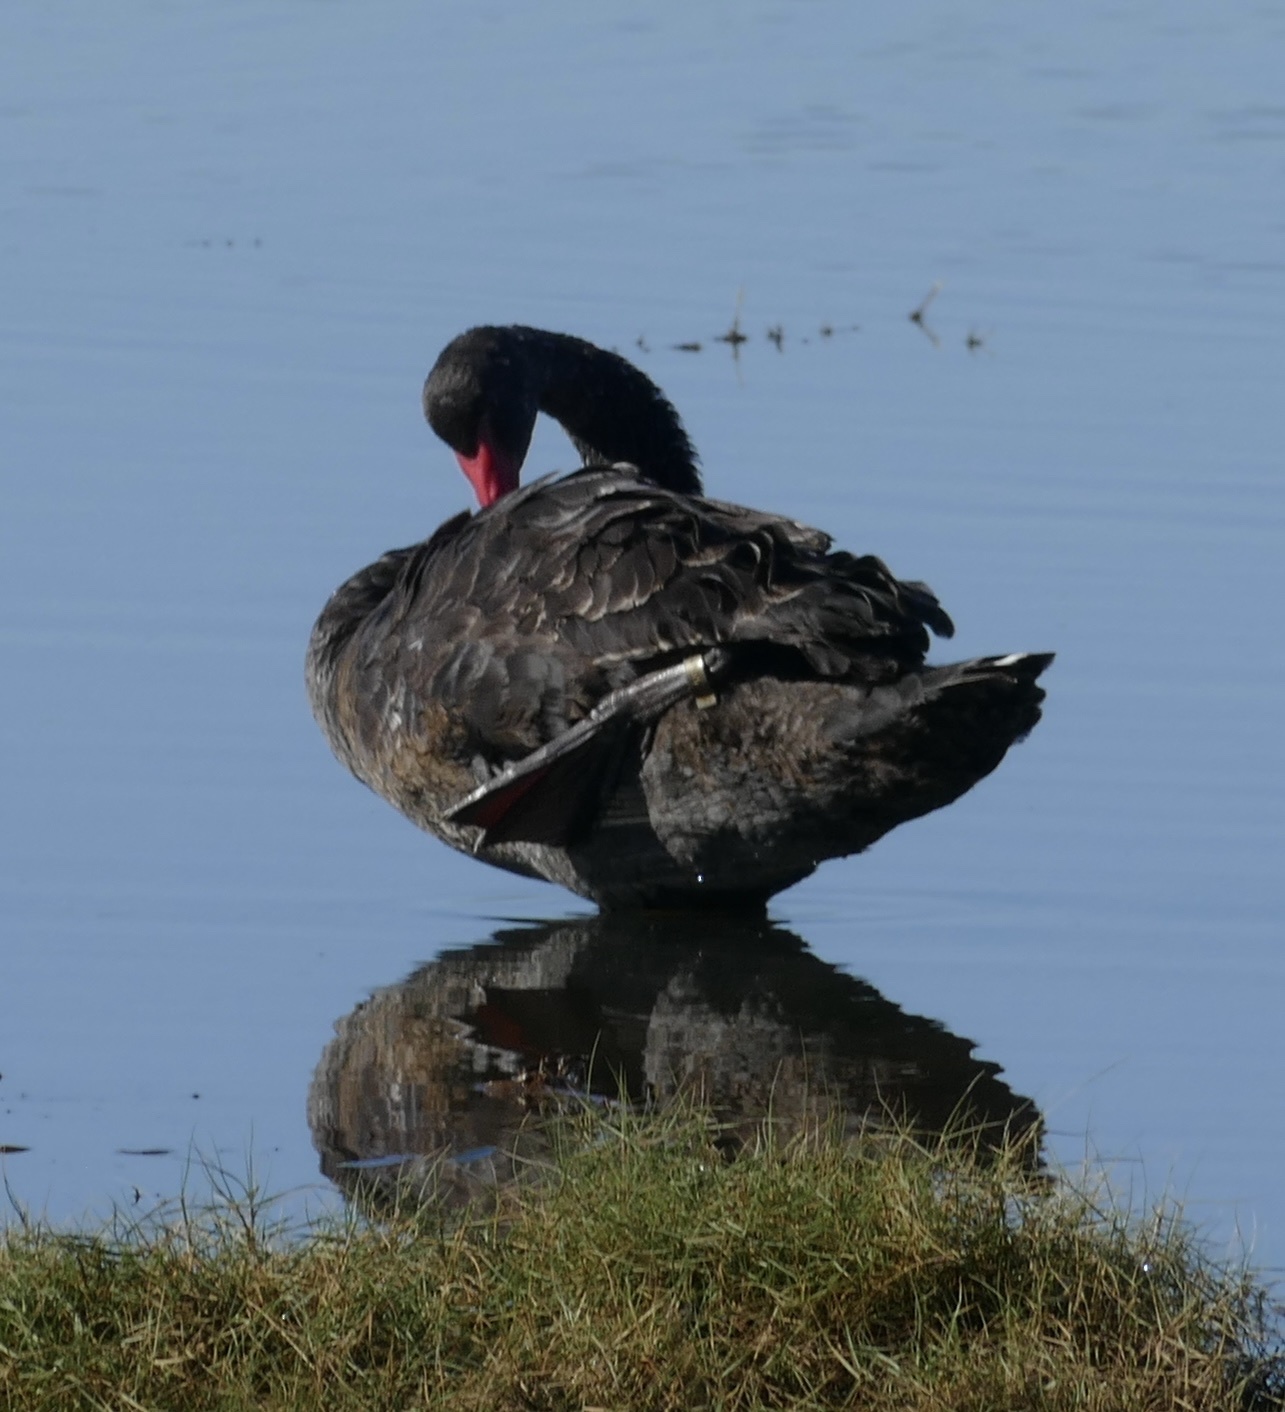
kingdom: Animalia
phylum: Chordata
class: Aves
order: Anseriformes
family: Anatidae
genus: Cygnus
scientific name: Cygnus atratus
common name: Black swan
